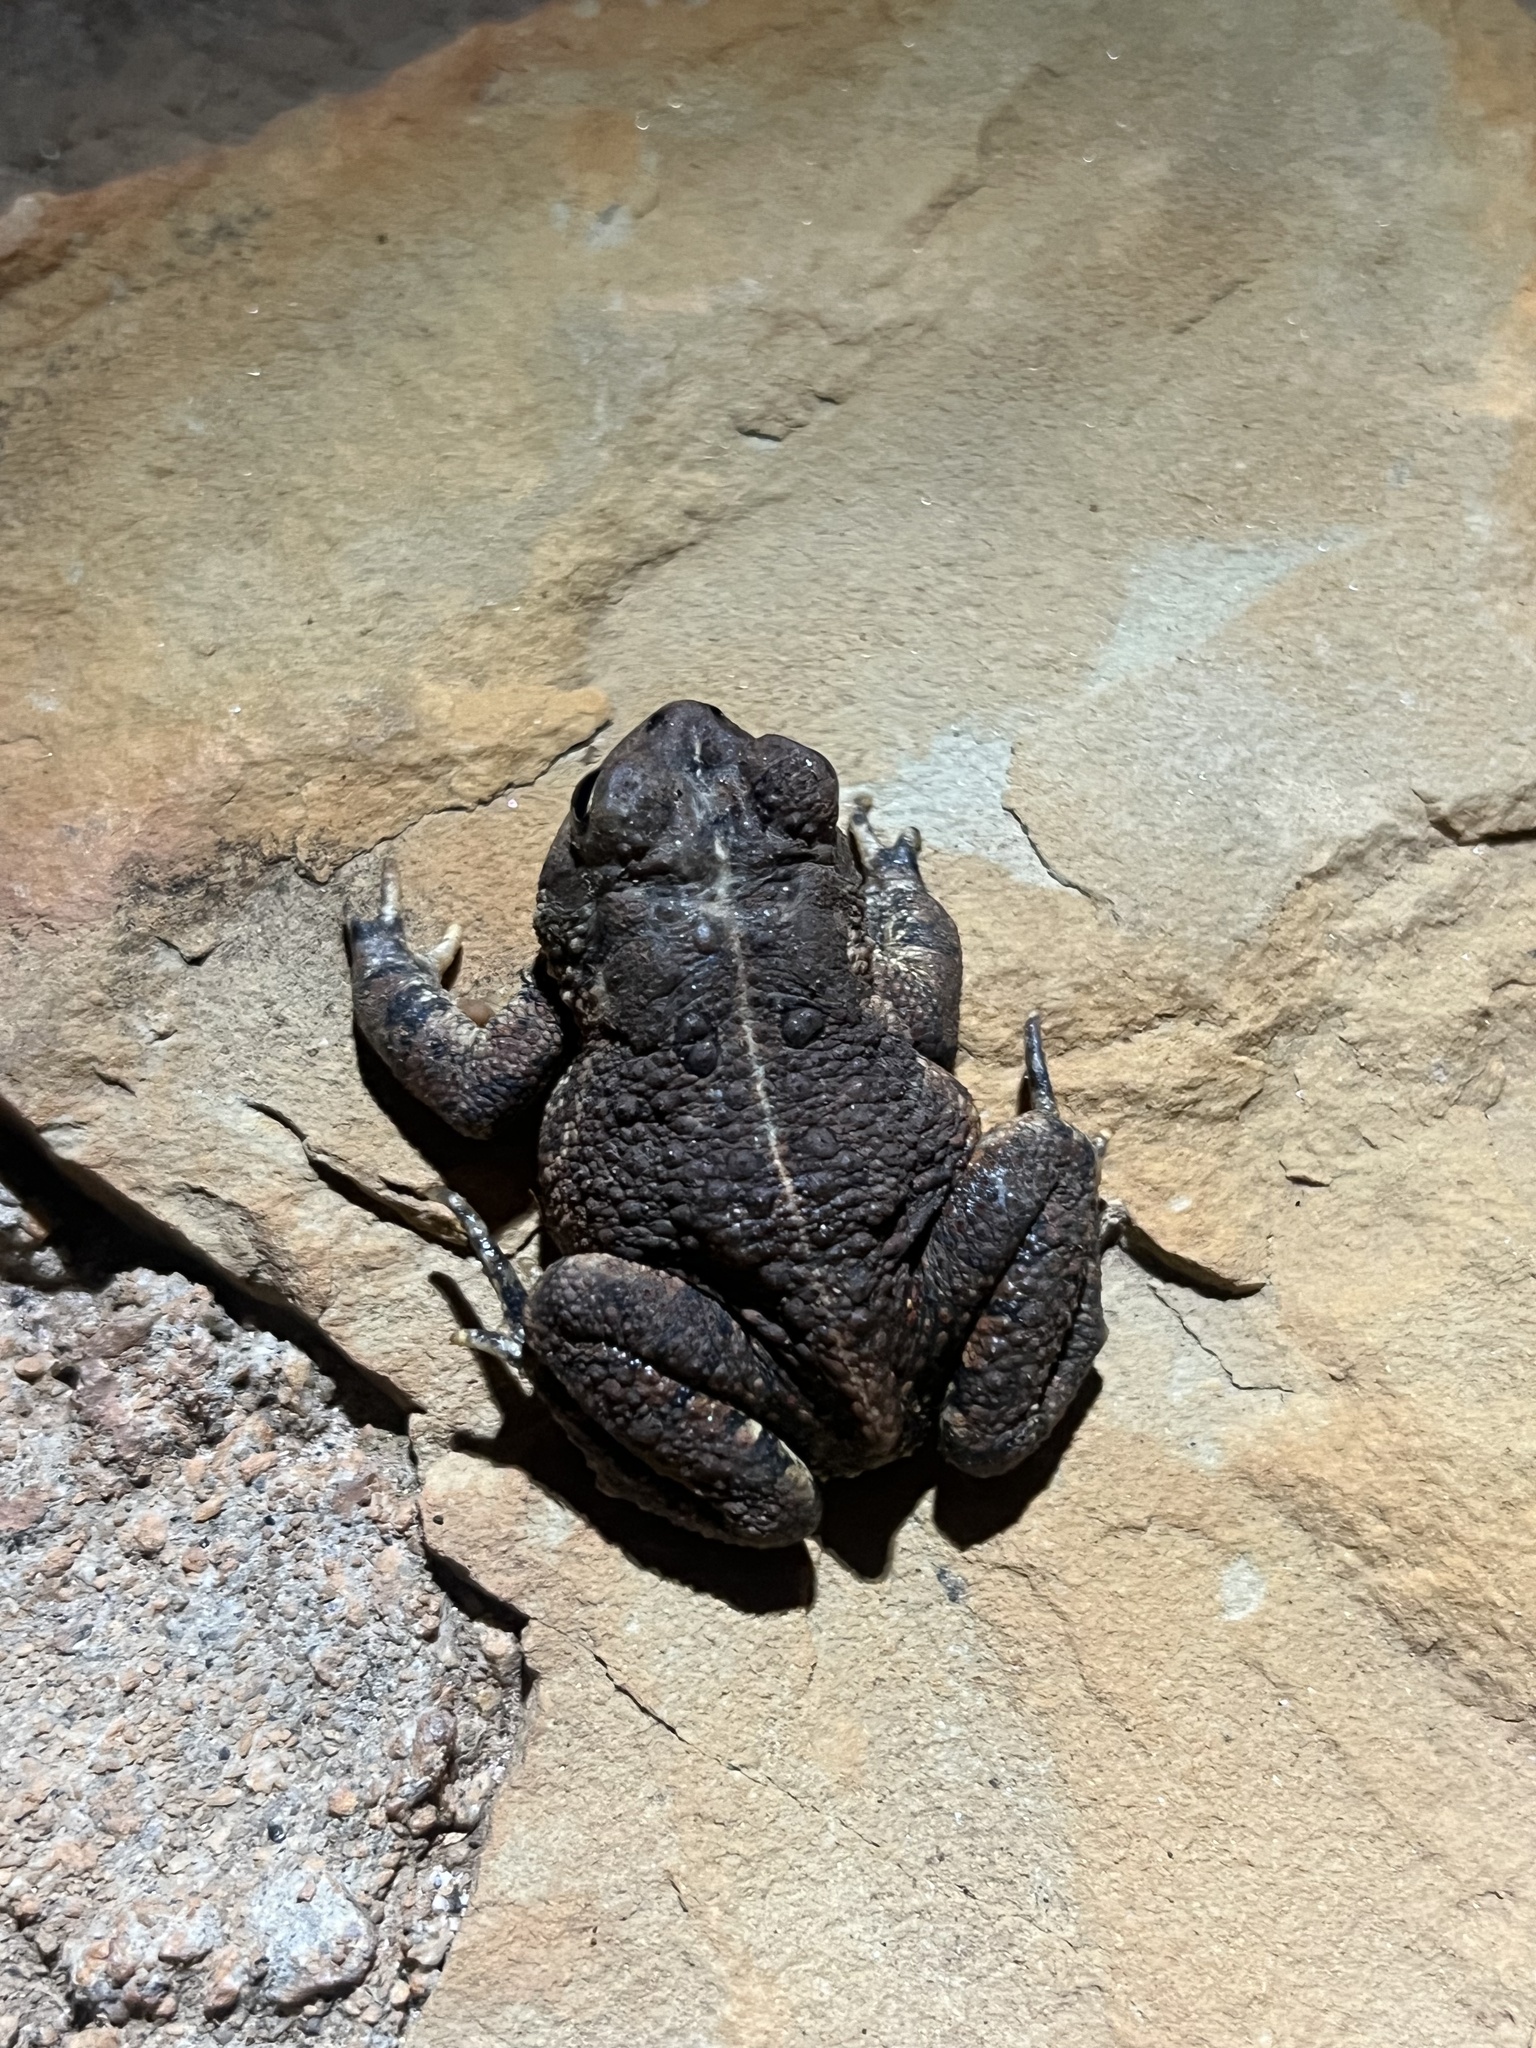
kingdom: Animalia
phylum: Chordata
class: Amphibia
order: Anura
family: Bufonidae
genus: Anaxyrus
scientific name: Anaxyrus fowleri
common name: Fowler's toad
